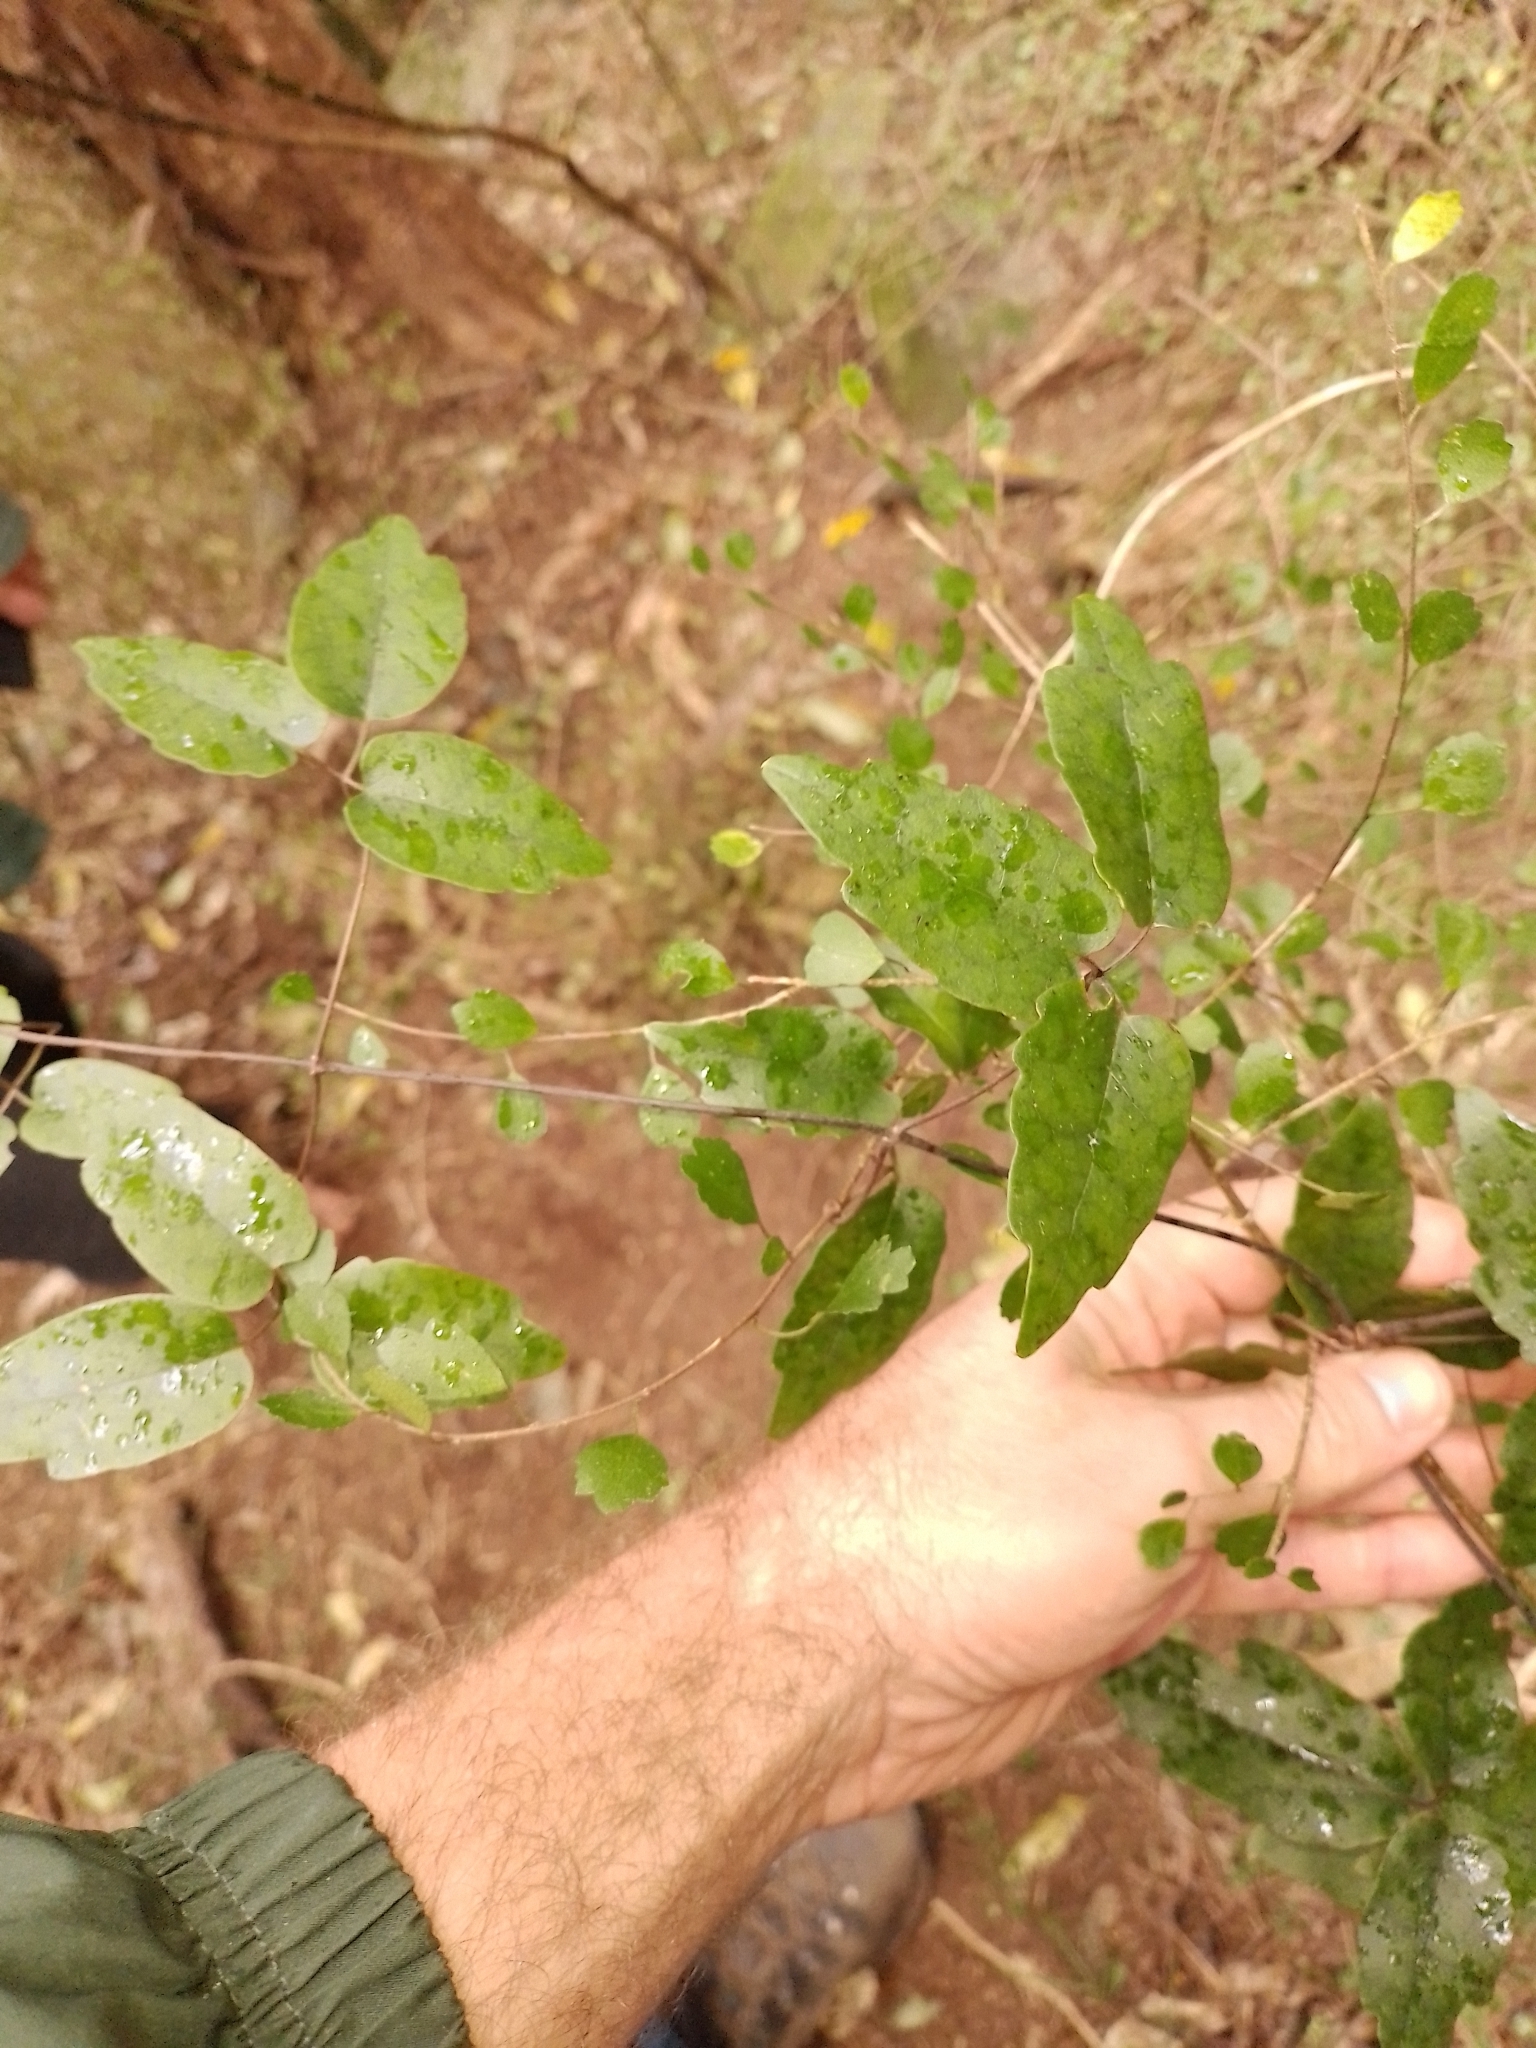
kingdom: Plantae
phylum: Tracheophyta
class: Magnoliopsida
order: Ranunculales
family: Ranunculaceae
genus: Clematis
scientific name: Clematis paniculata
